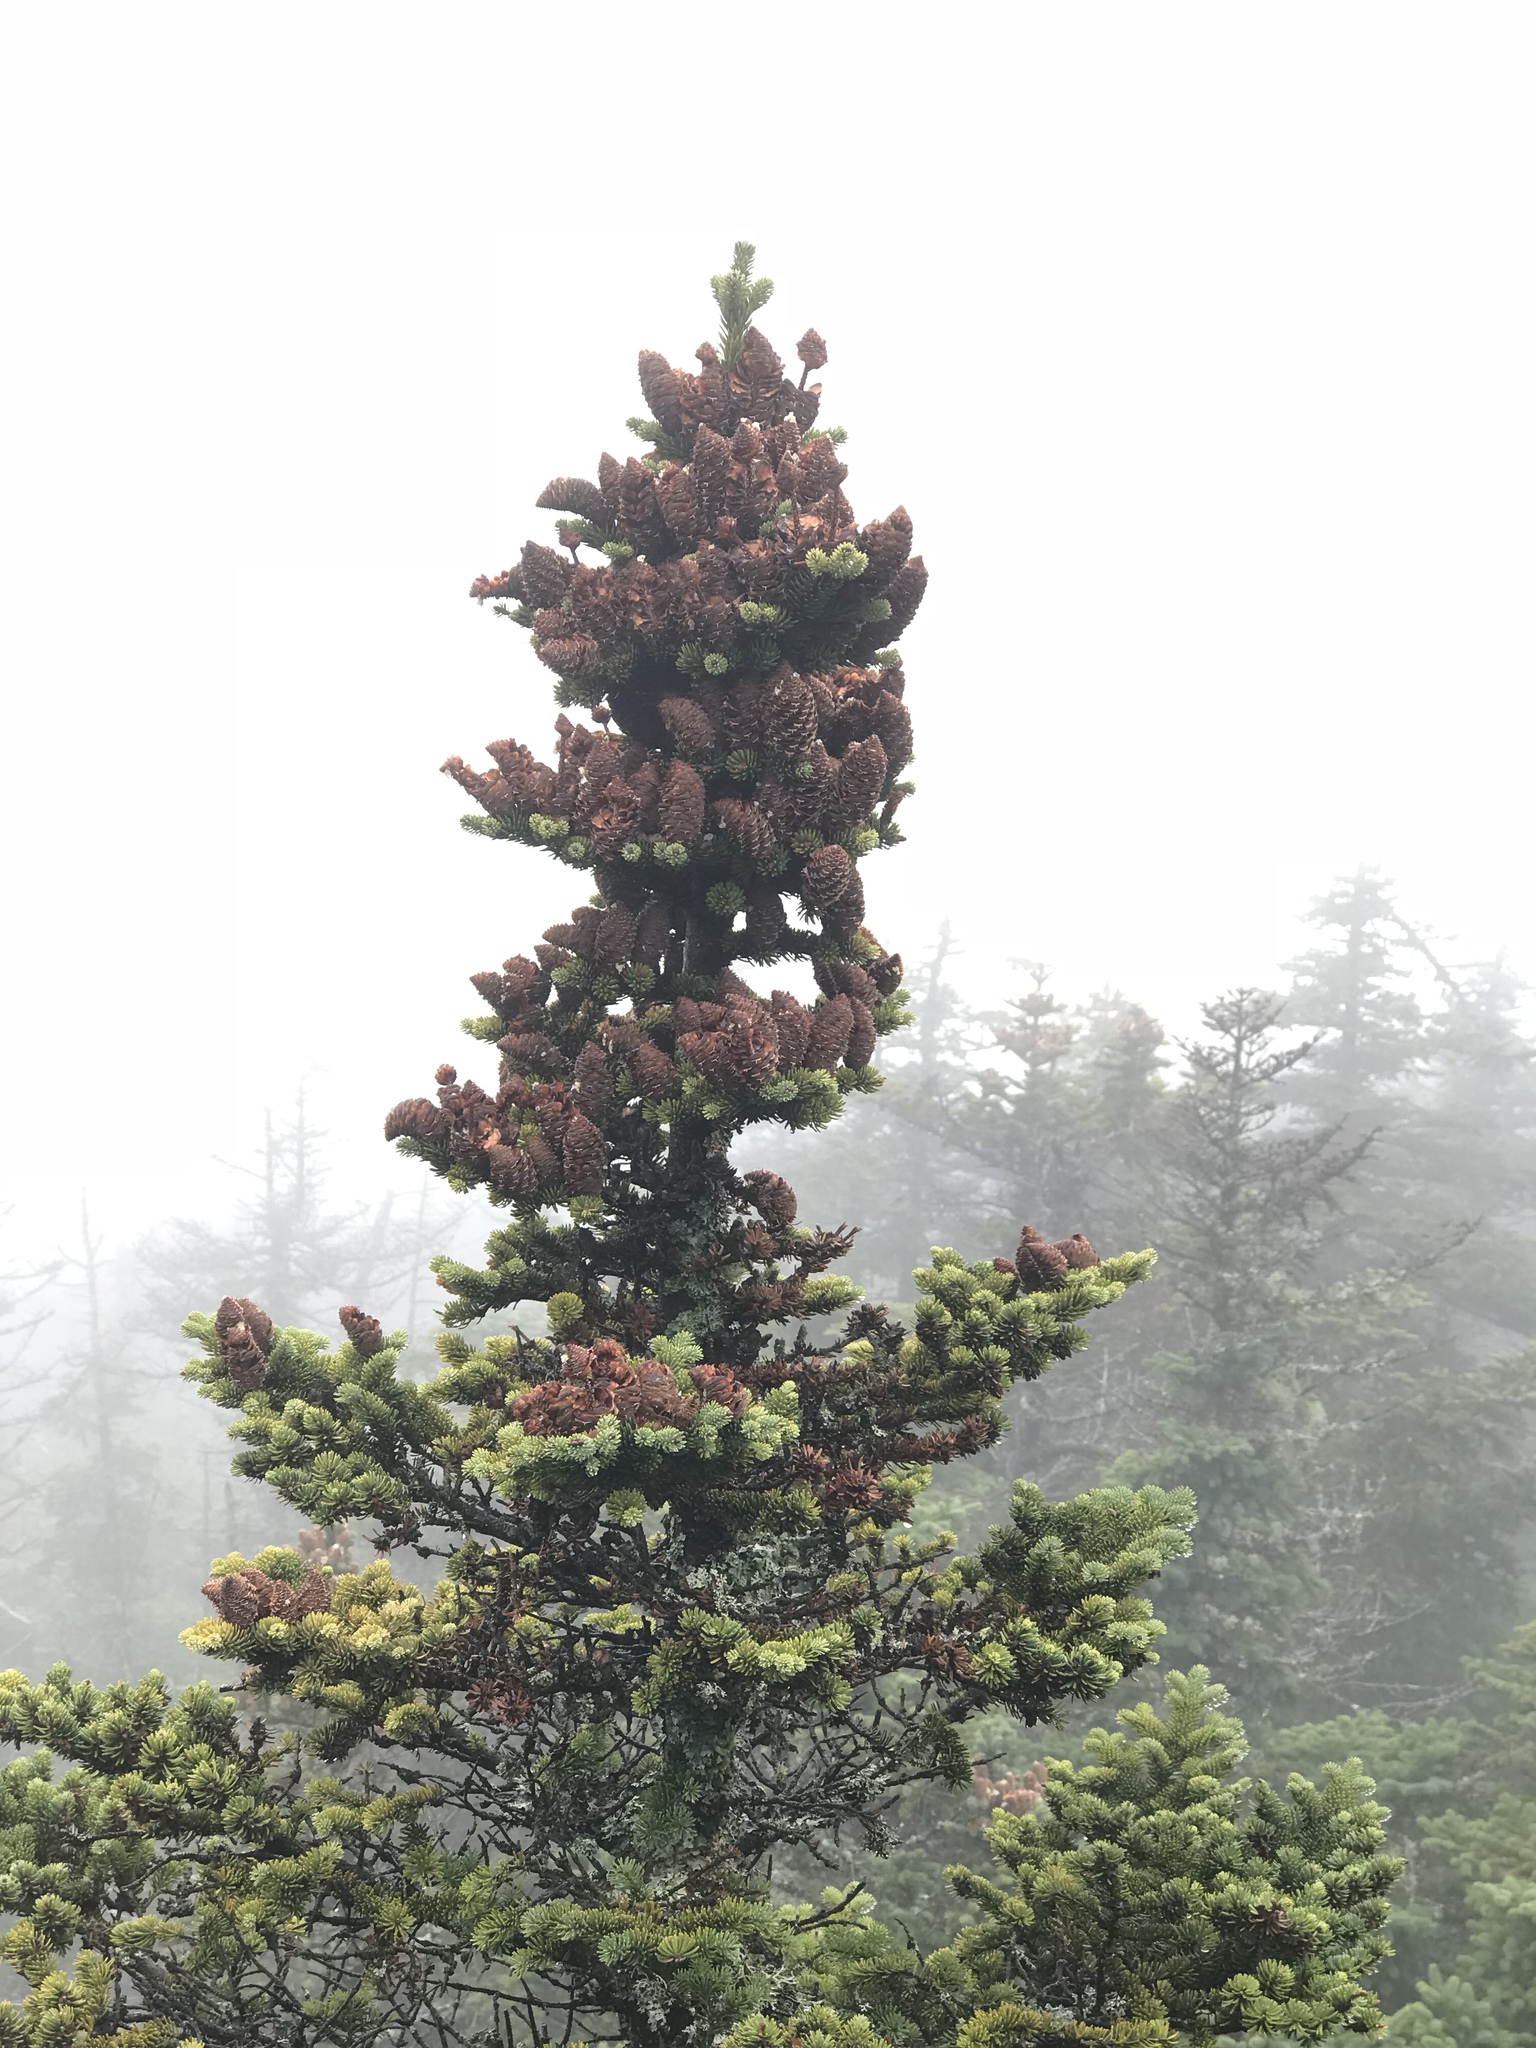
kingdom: Plantae
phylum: Tracheophyta
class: Pinopsida
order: Pinales
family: Pinaceae
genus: Abies
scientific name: Abies balsamea
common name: Balsam fir
